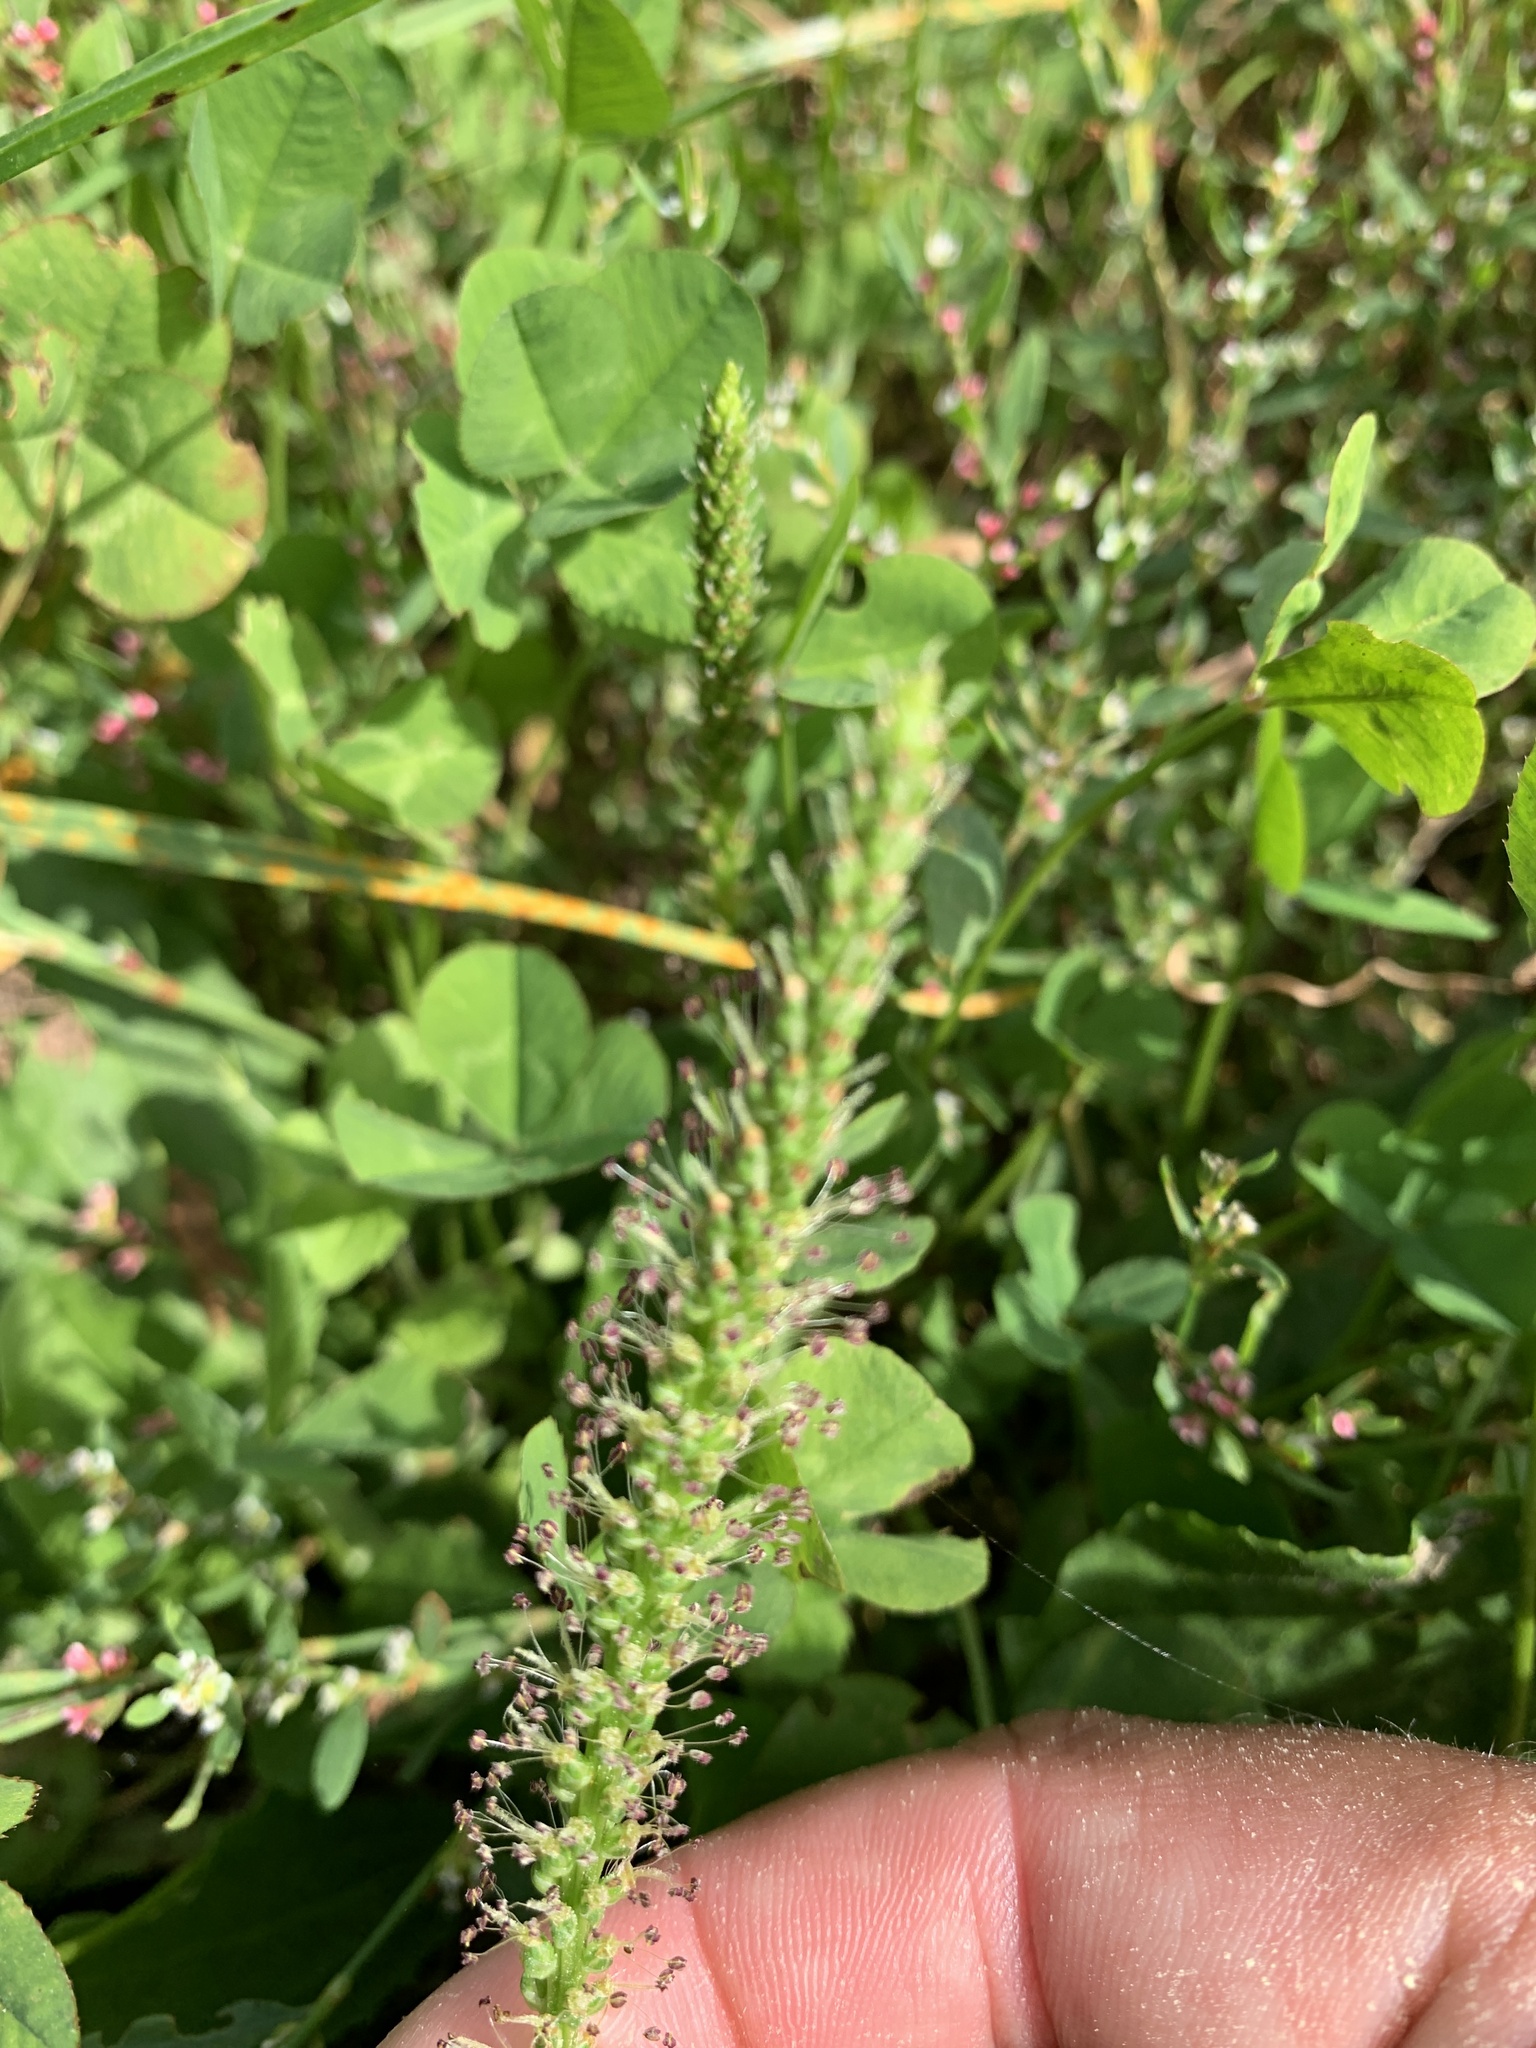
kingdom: Plantae
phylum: Tracheophyta
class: Magnoliopsida
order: Lamiales
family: Plantaginaceae
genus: Plantago
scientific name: Plantago major
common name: Common plantain
